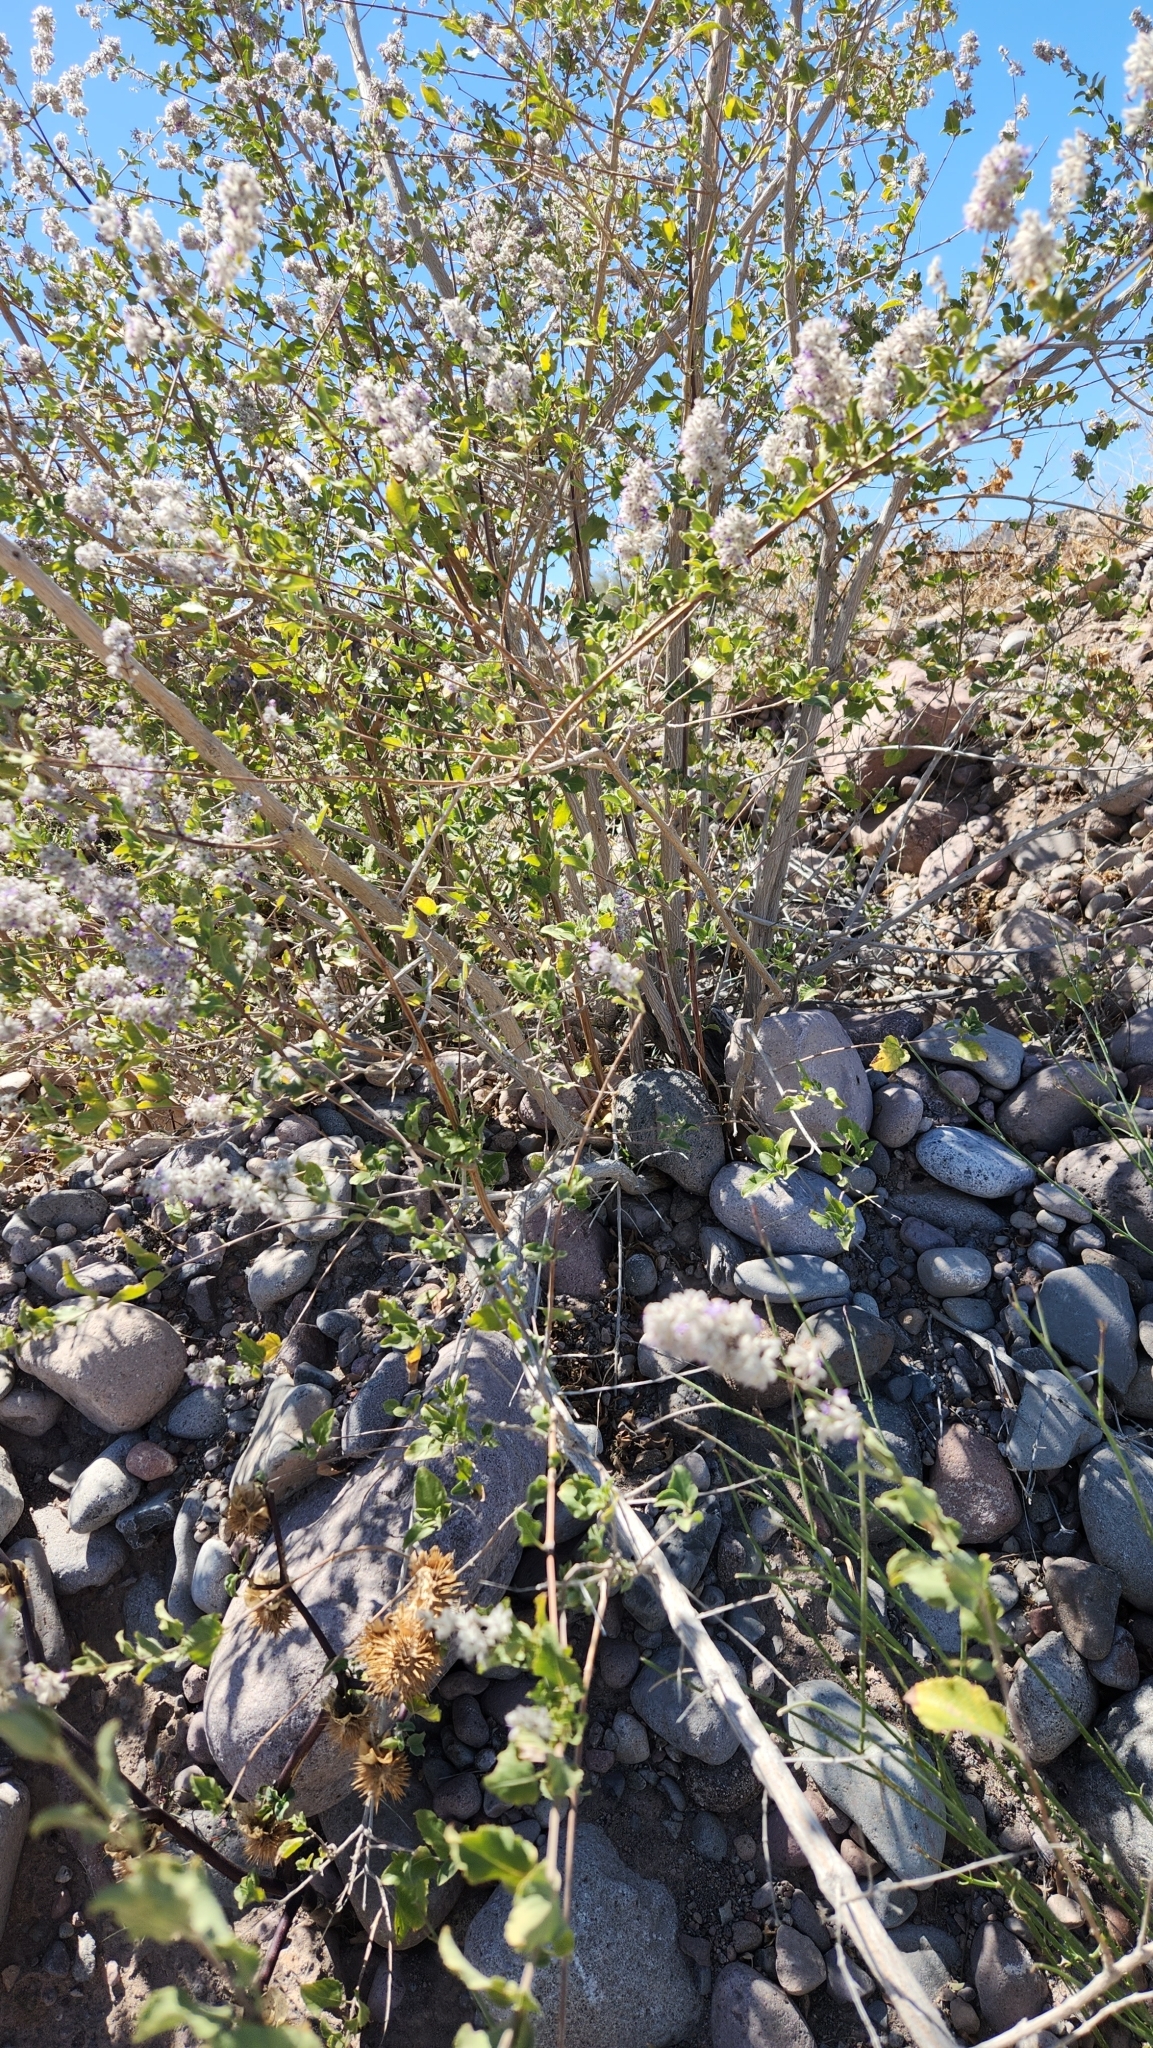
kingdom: Plantae
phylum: Tracheophyta
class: Magnoliopsida
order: Lamiales
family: Lamiaceae
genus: Condea
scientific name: Condea emoryi
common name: Chia
